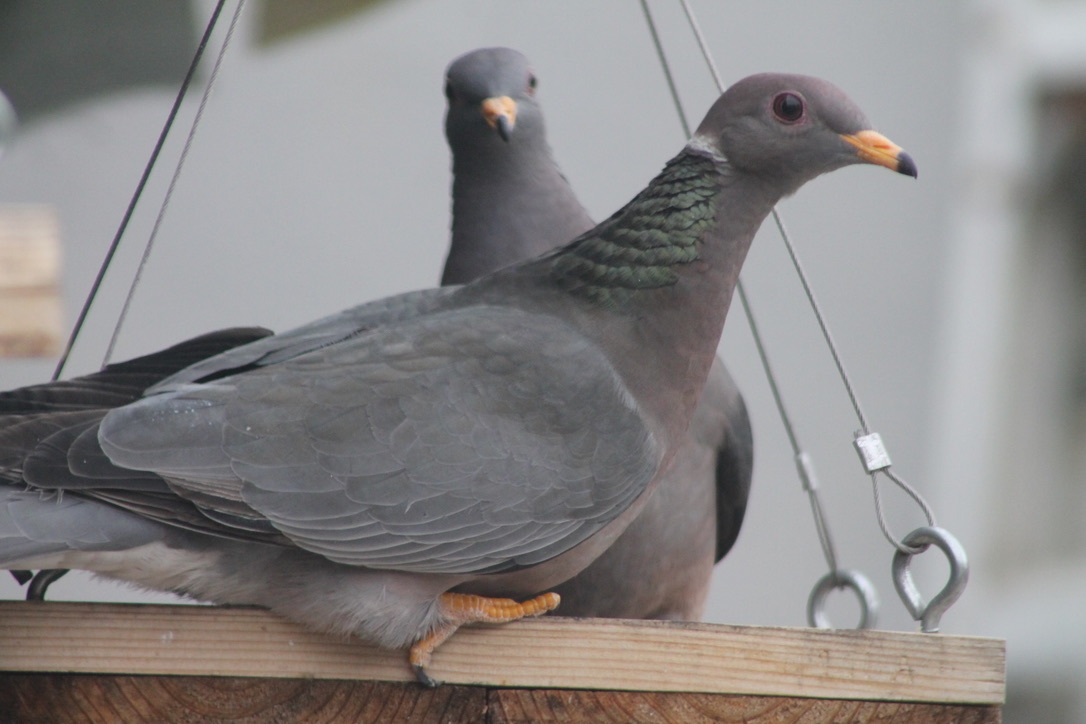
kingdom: Animalia
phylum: Chordata
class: Aves
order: Columbiformes
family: Columbidae
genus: Patagioenas
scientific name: Patagioenas fasciata
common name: Band-tailed pigeon
